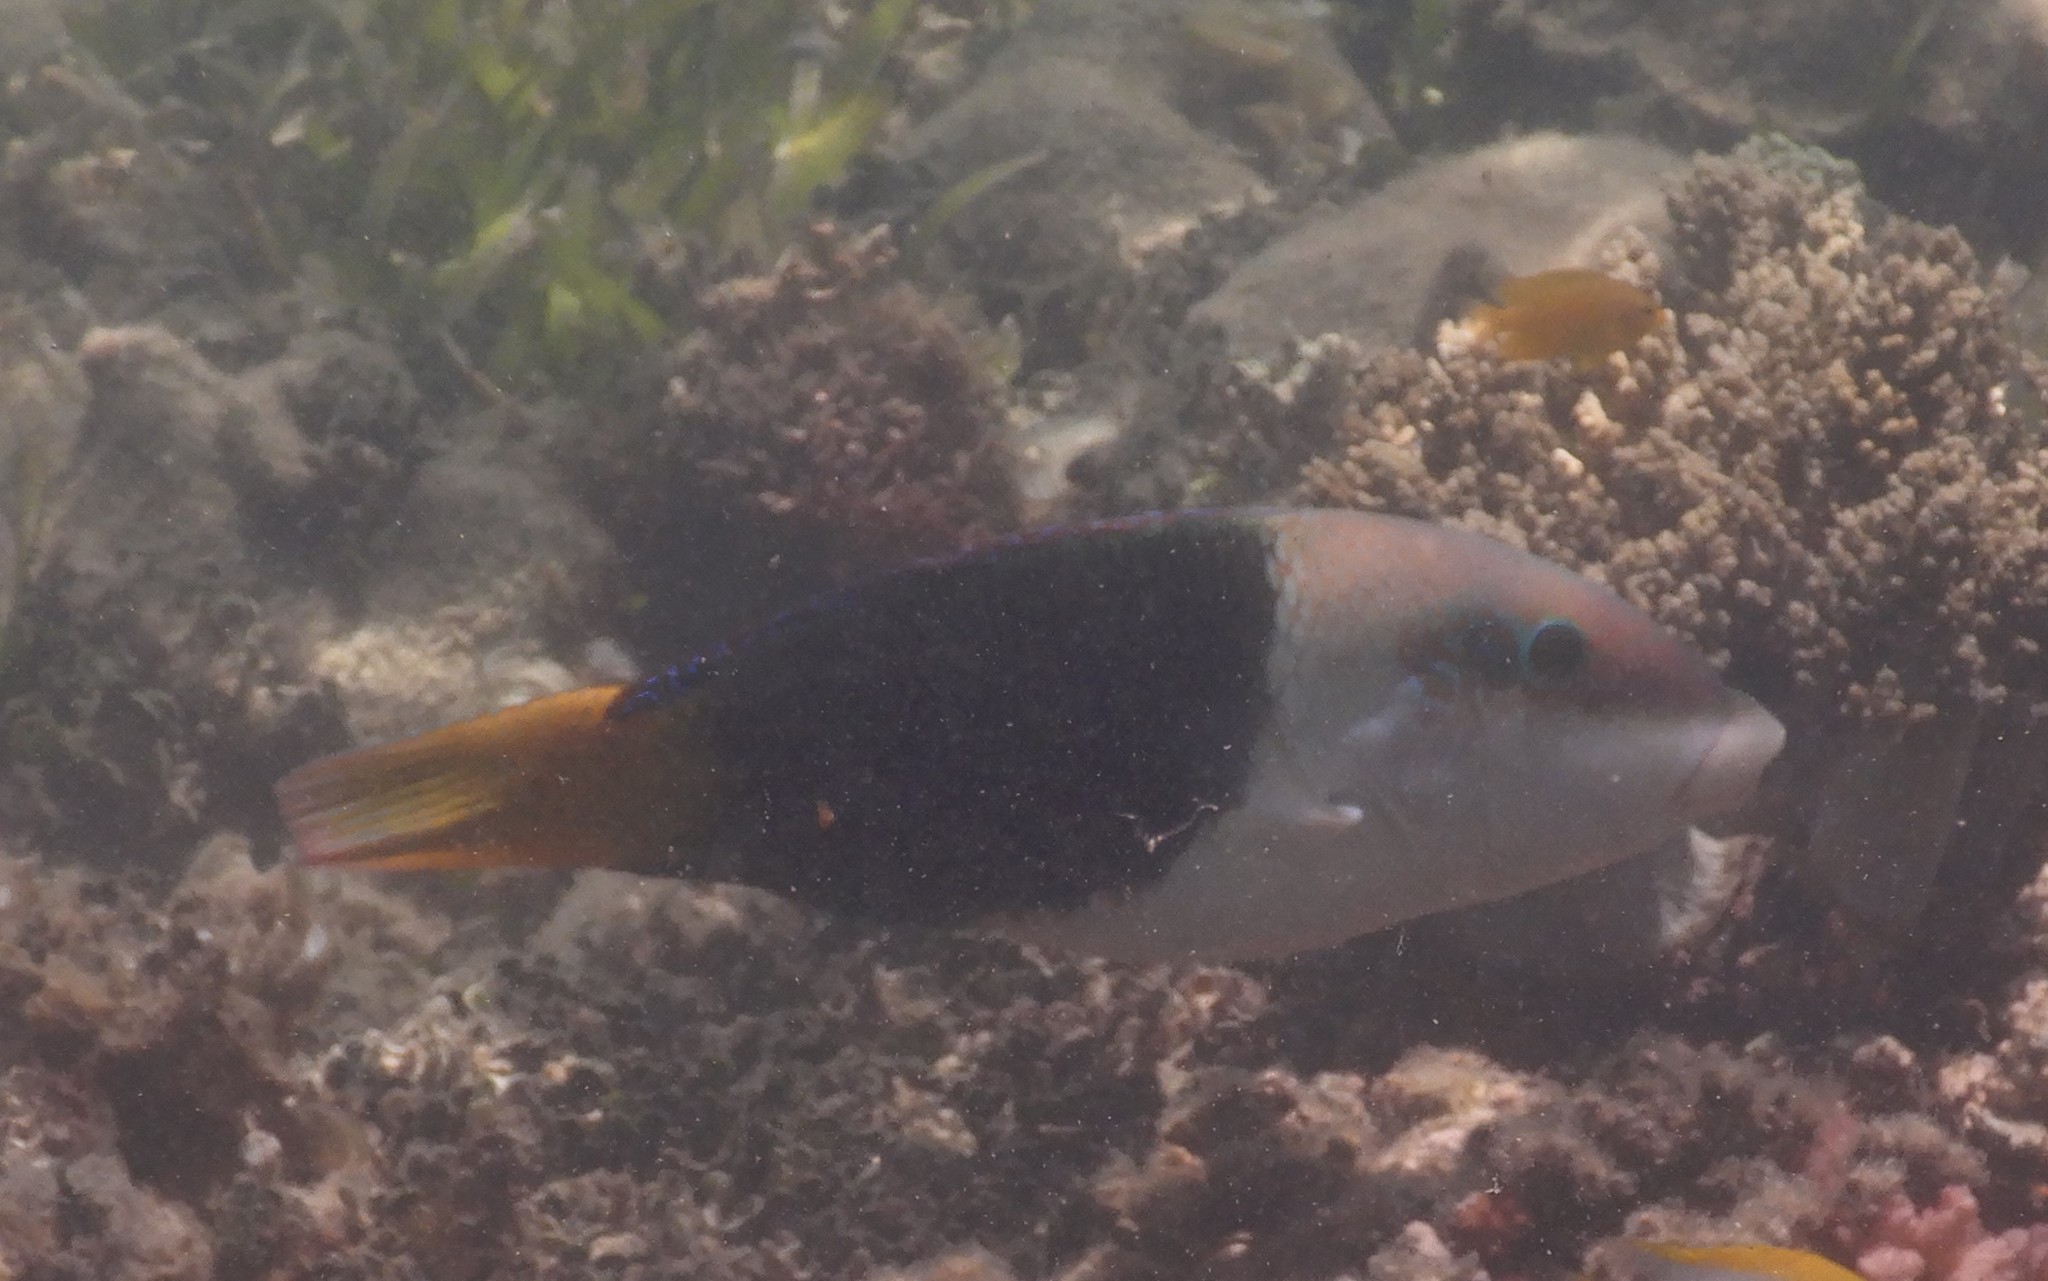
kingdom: Animalia
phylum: Chordata
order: Perciformes
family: Labridae
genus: Hemigymnus
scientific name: Hemigymnus melapterus
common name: Blackeye thicklip
